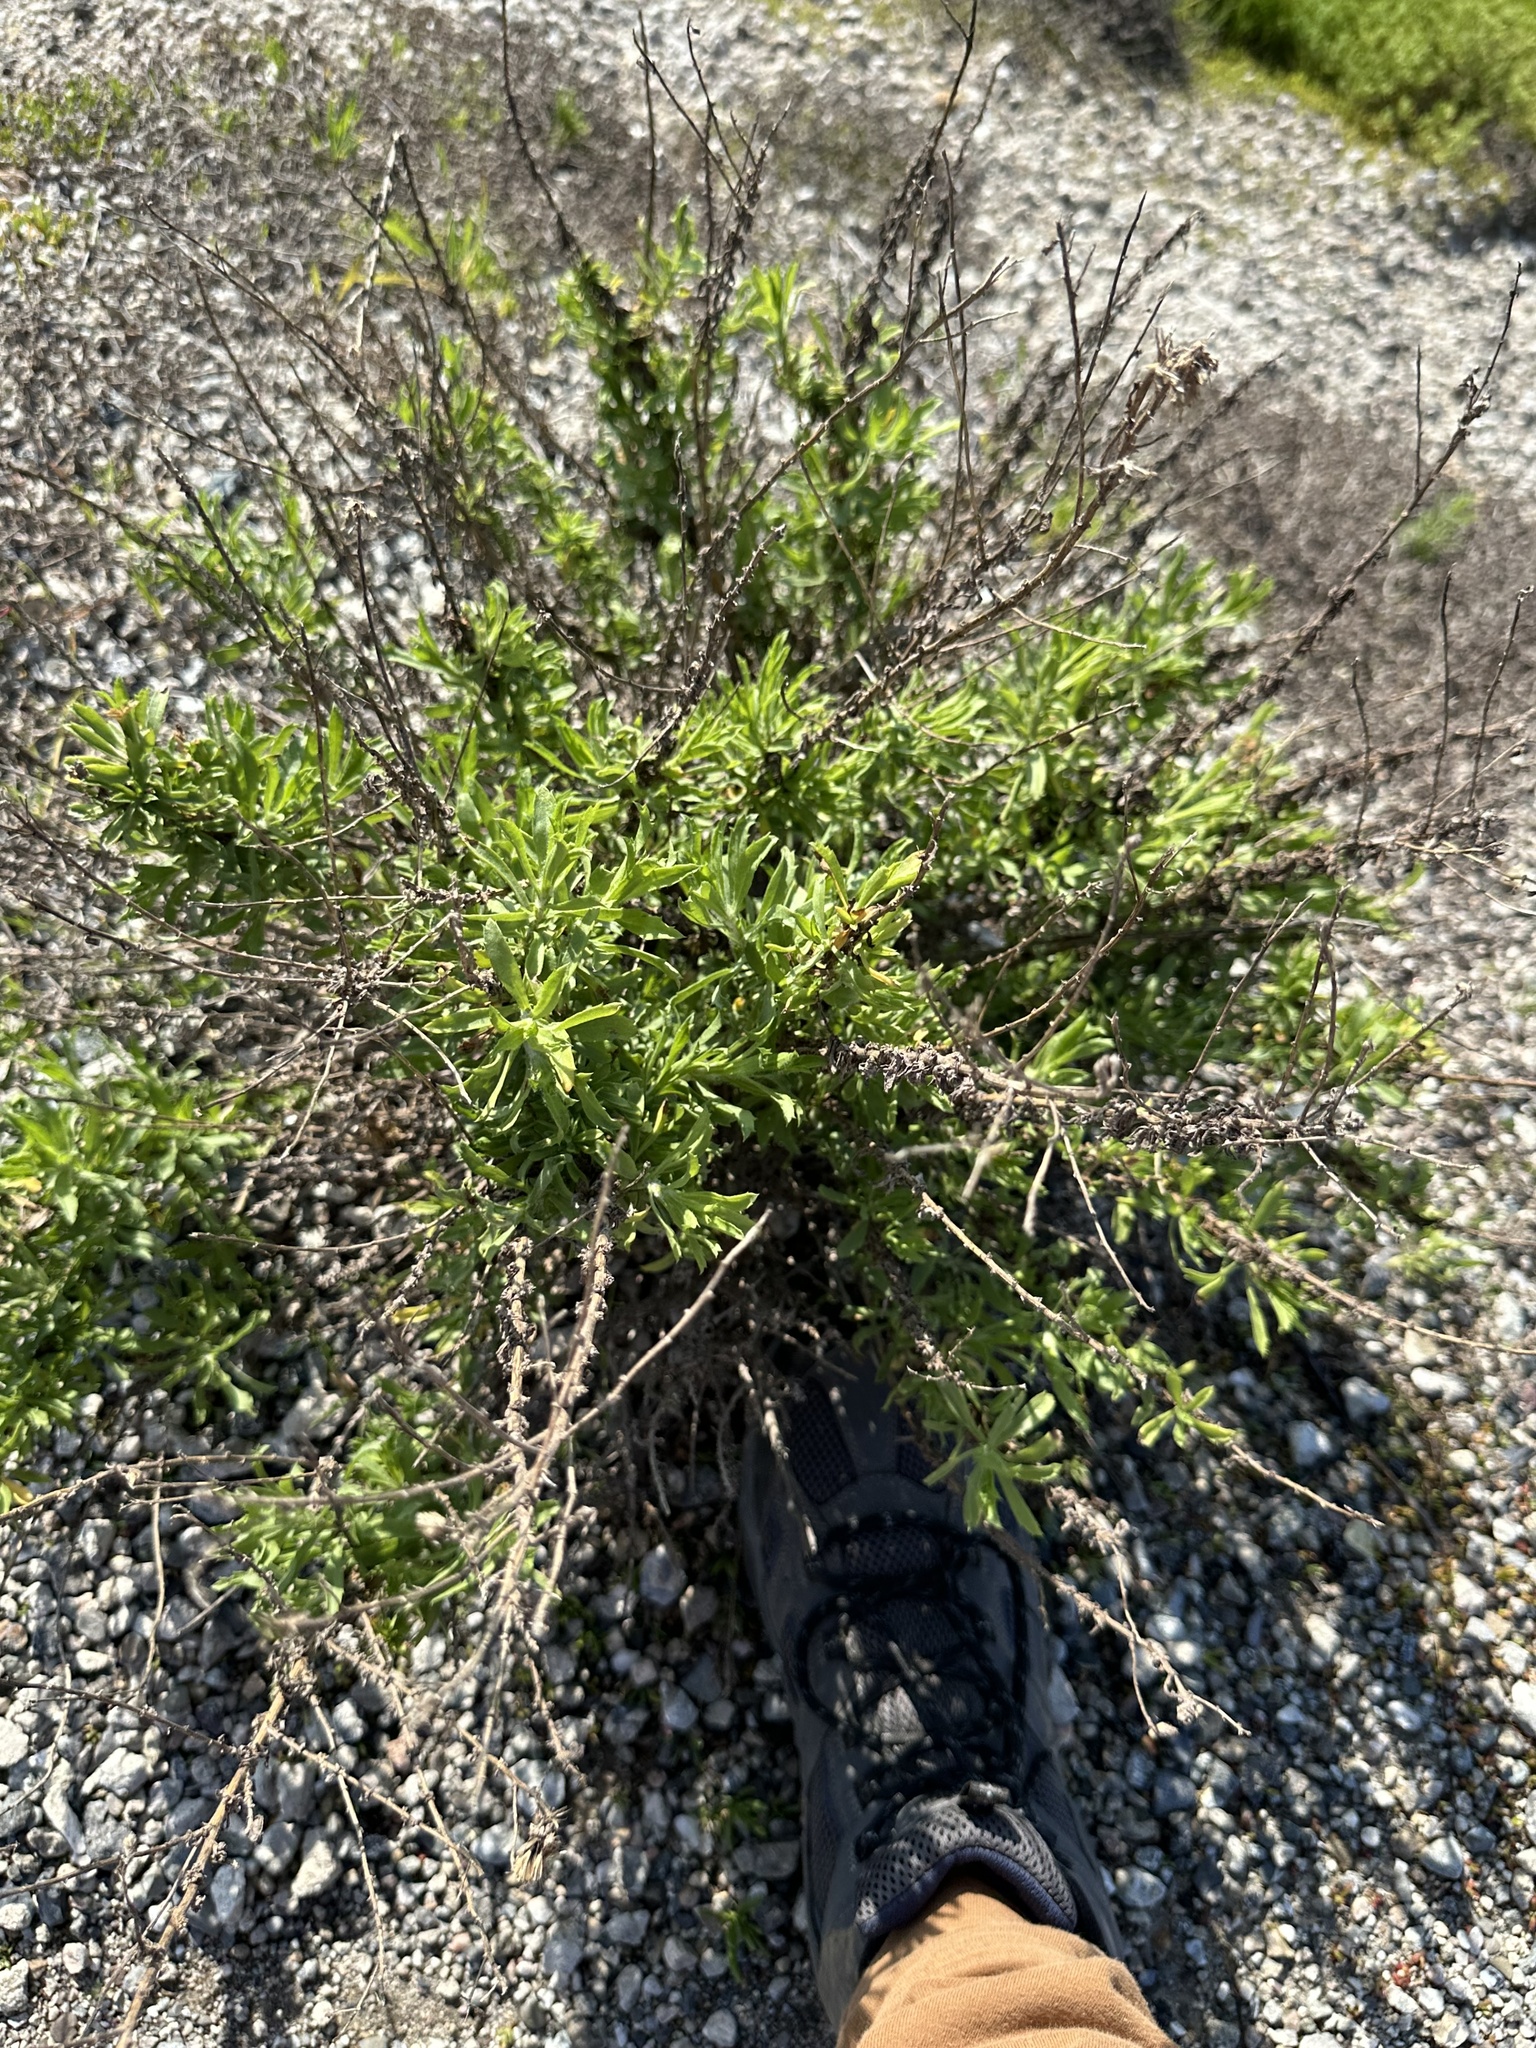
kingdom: Plantae
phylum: Tracheophyta
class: Magnoliopsida
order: Asterales
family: Asteraceae
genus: Isocoma
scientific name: Isocoma menziesii
